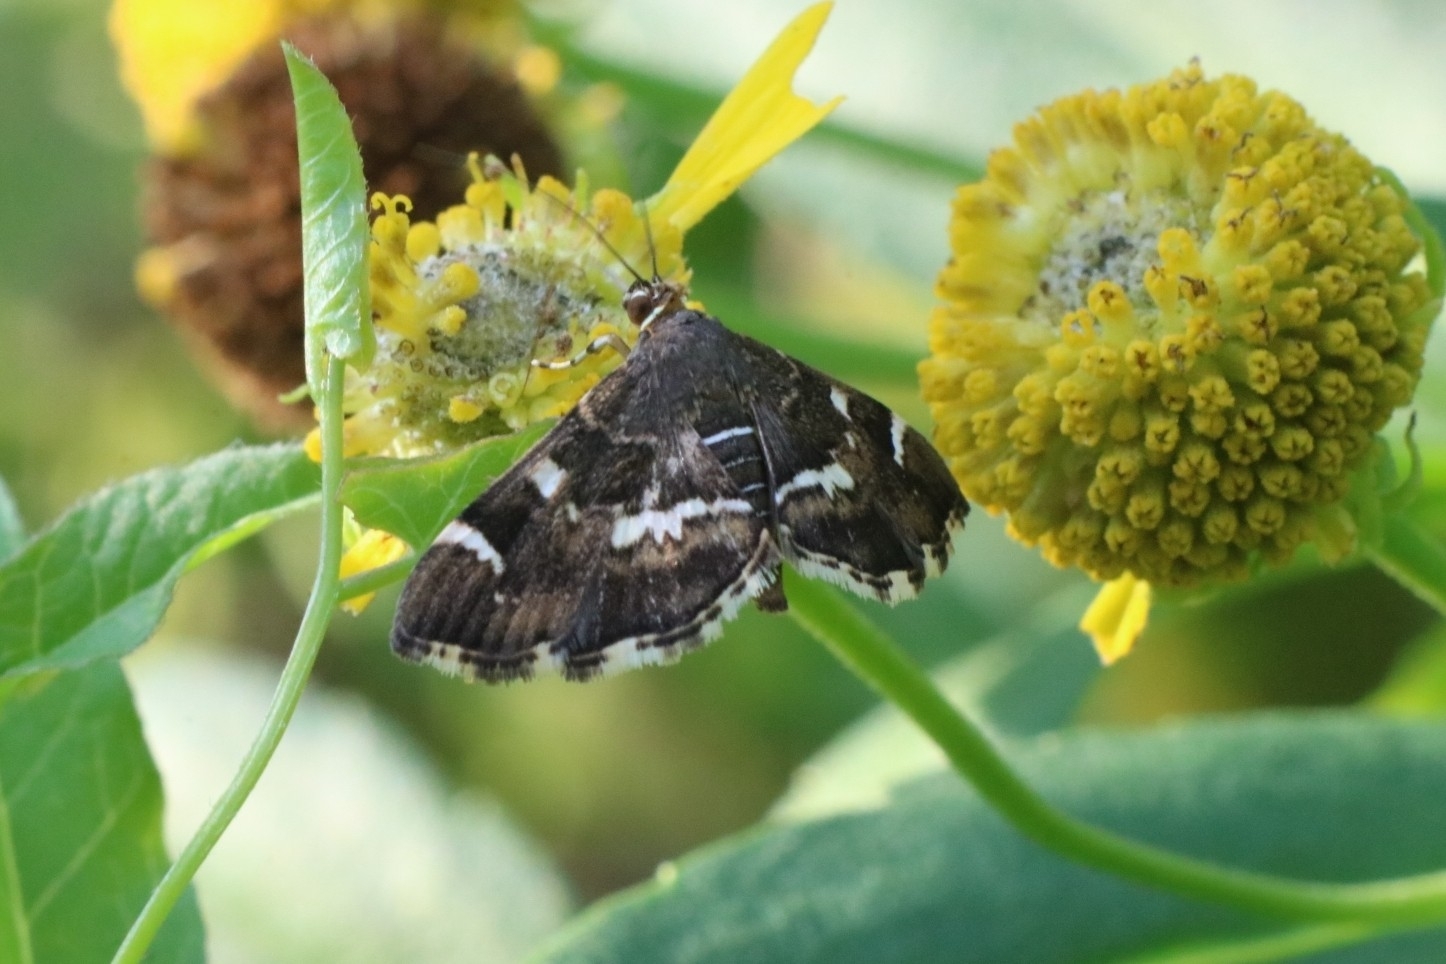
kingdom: Animalia
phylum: Arthropoda
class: Insecta
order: Lepidoptera
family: Crambidae
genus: Hymenia
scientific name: Hymenia perspectalis
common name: Spotted beet webworm
